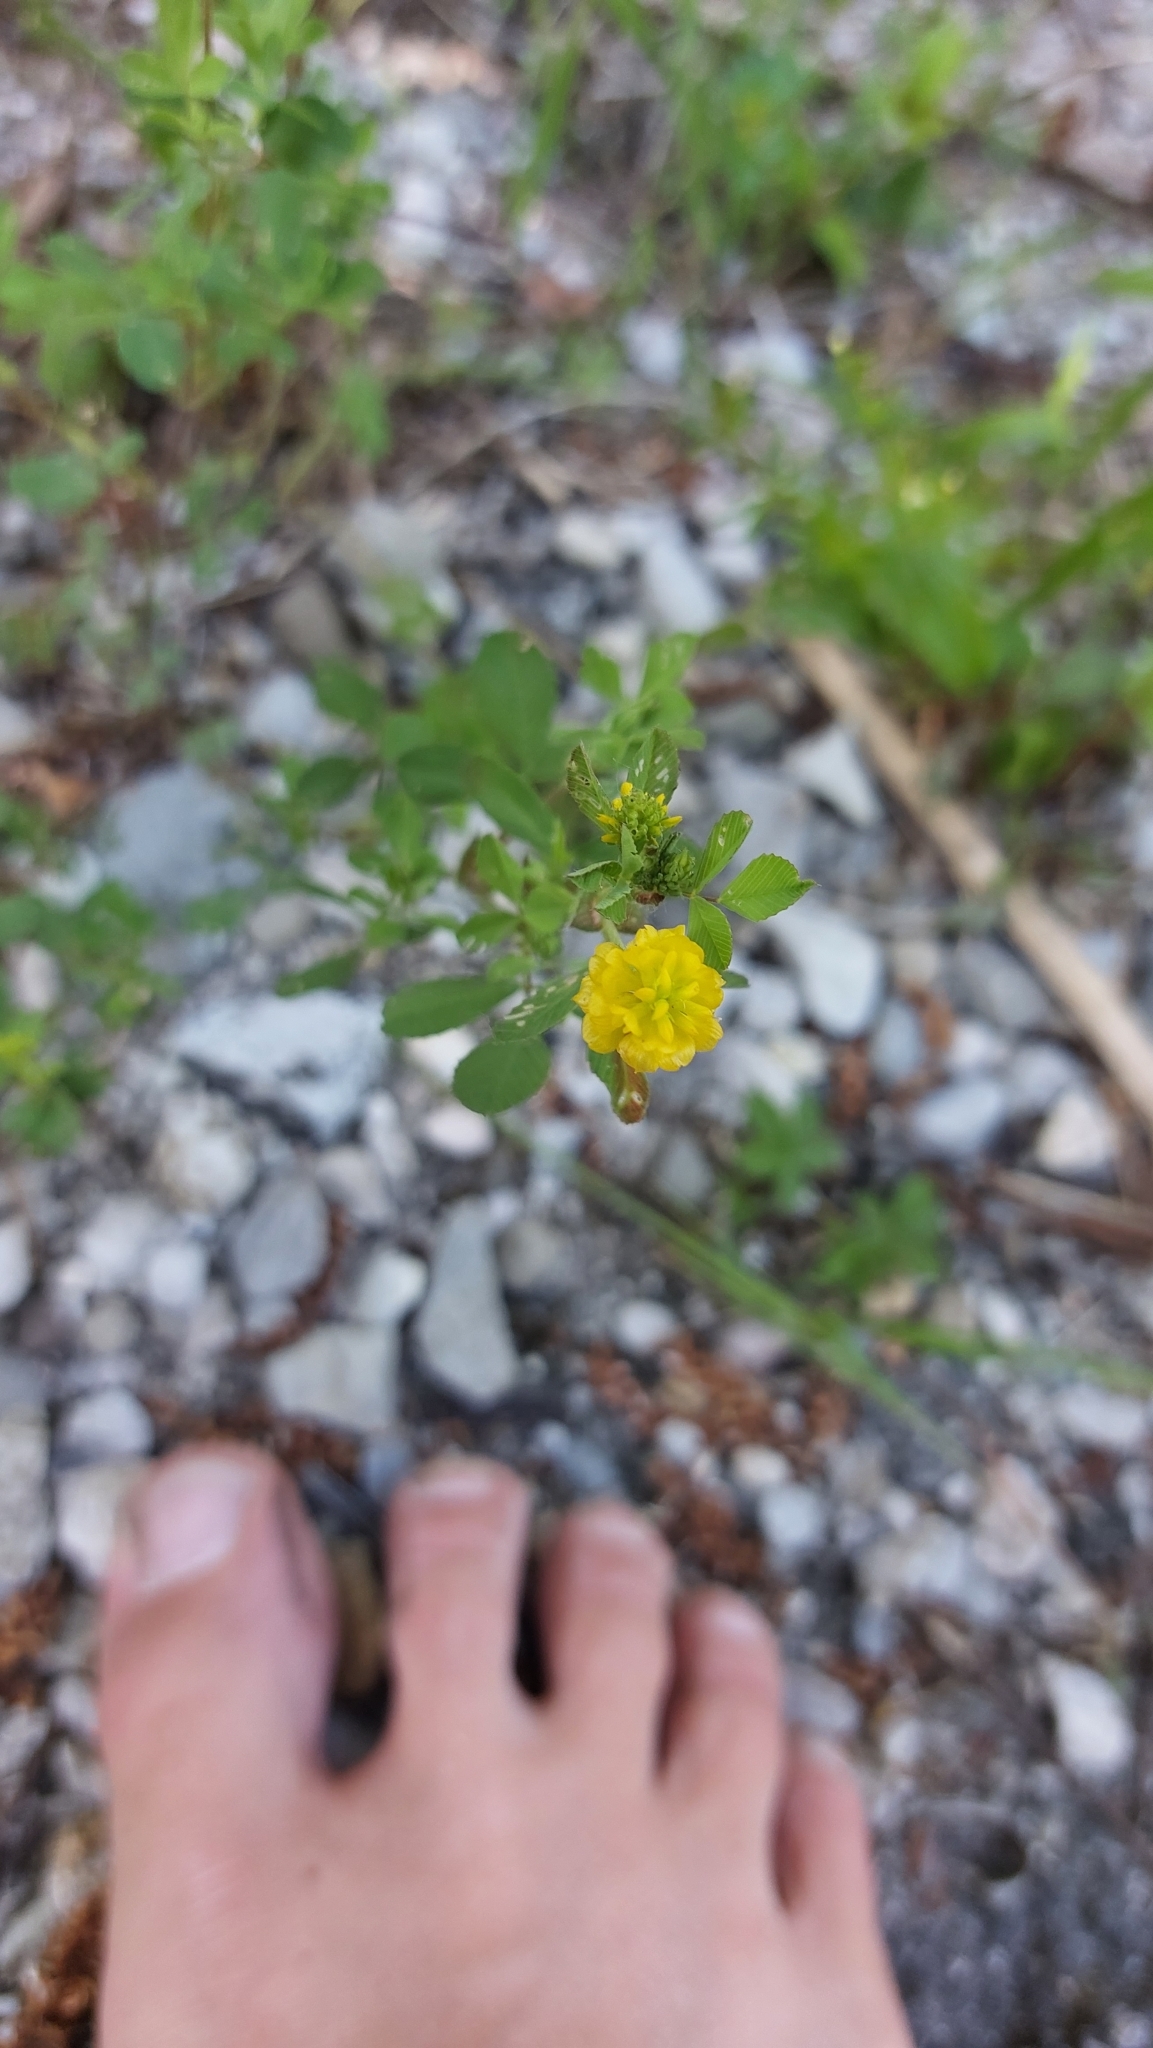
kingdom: Plantae
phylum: Tracheophyta
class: Magnoliopsida
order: Fabales
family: Fabaceae
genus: Trifolium
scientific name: Trifolium campestre
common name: Field clover
